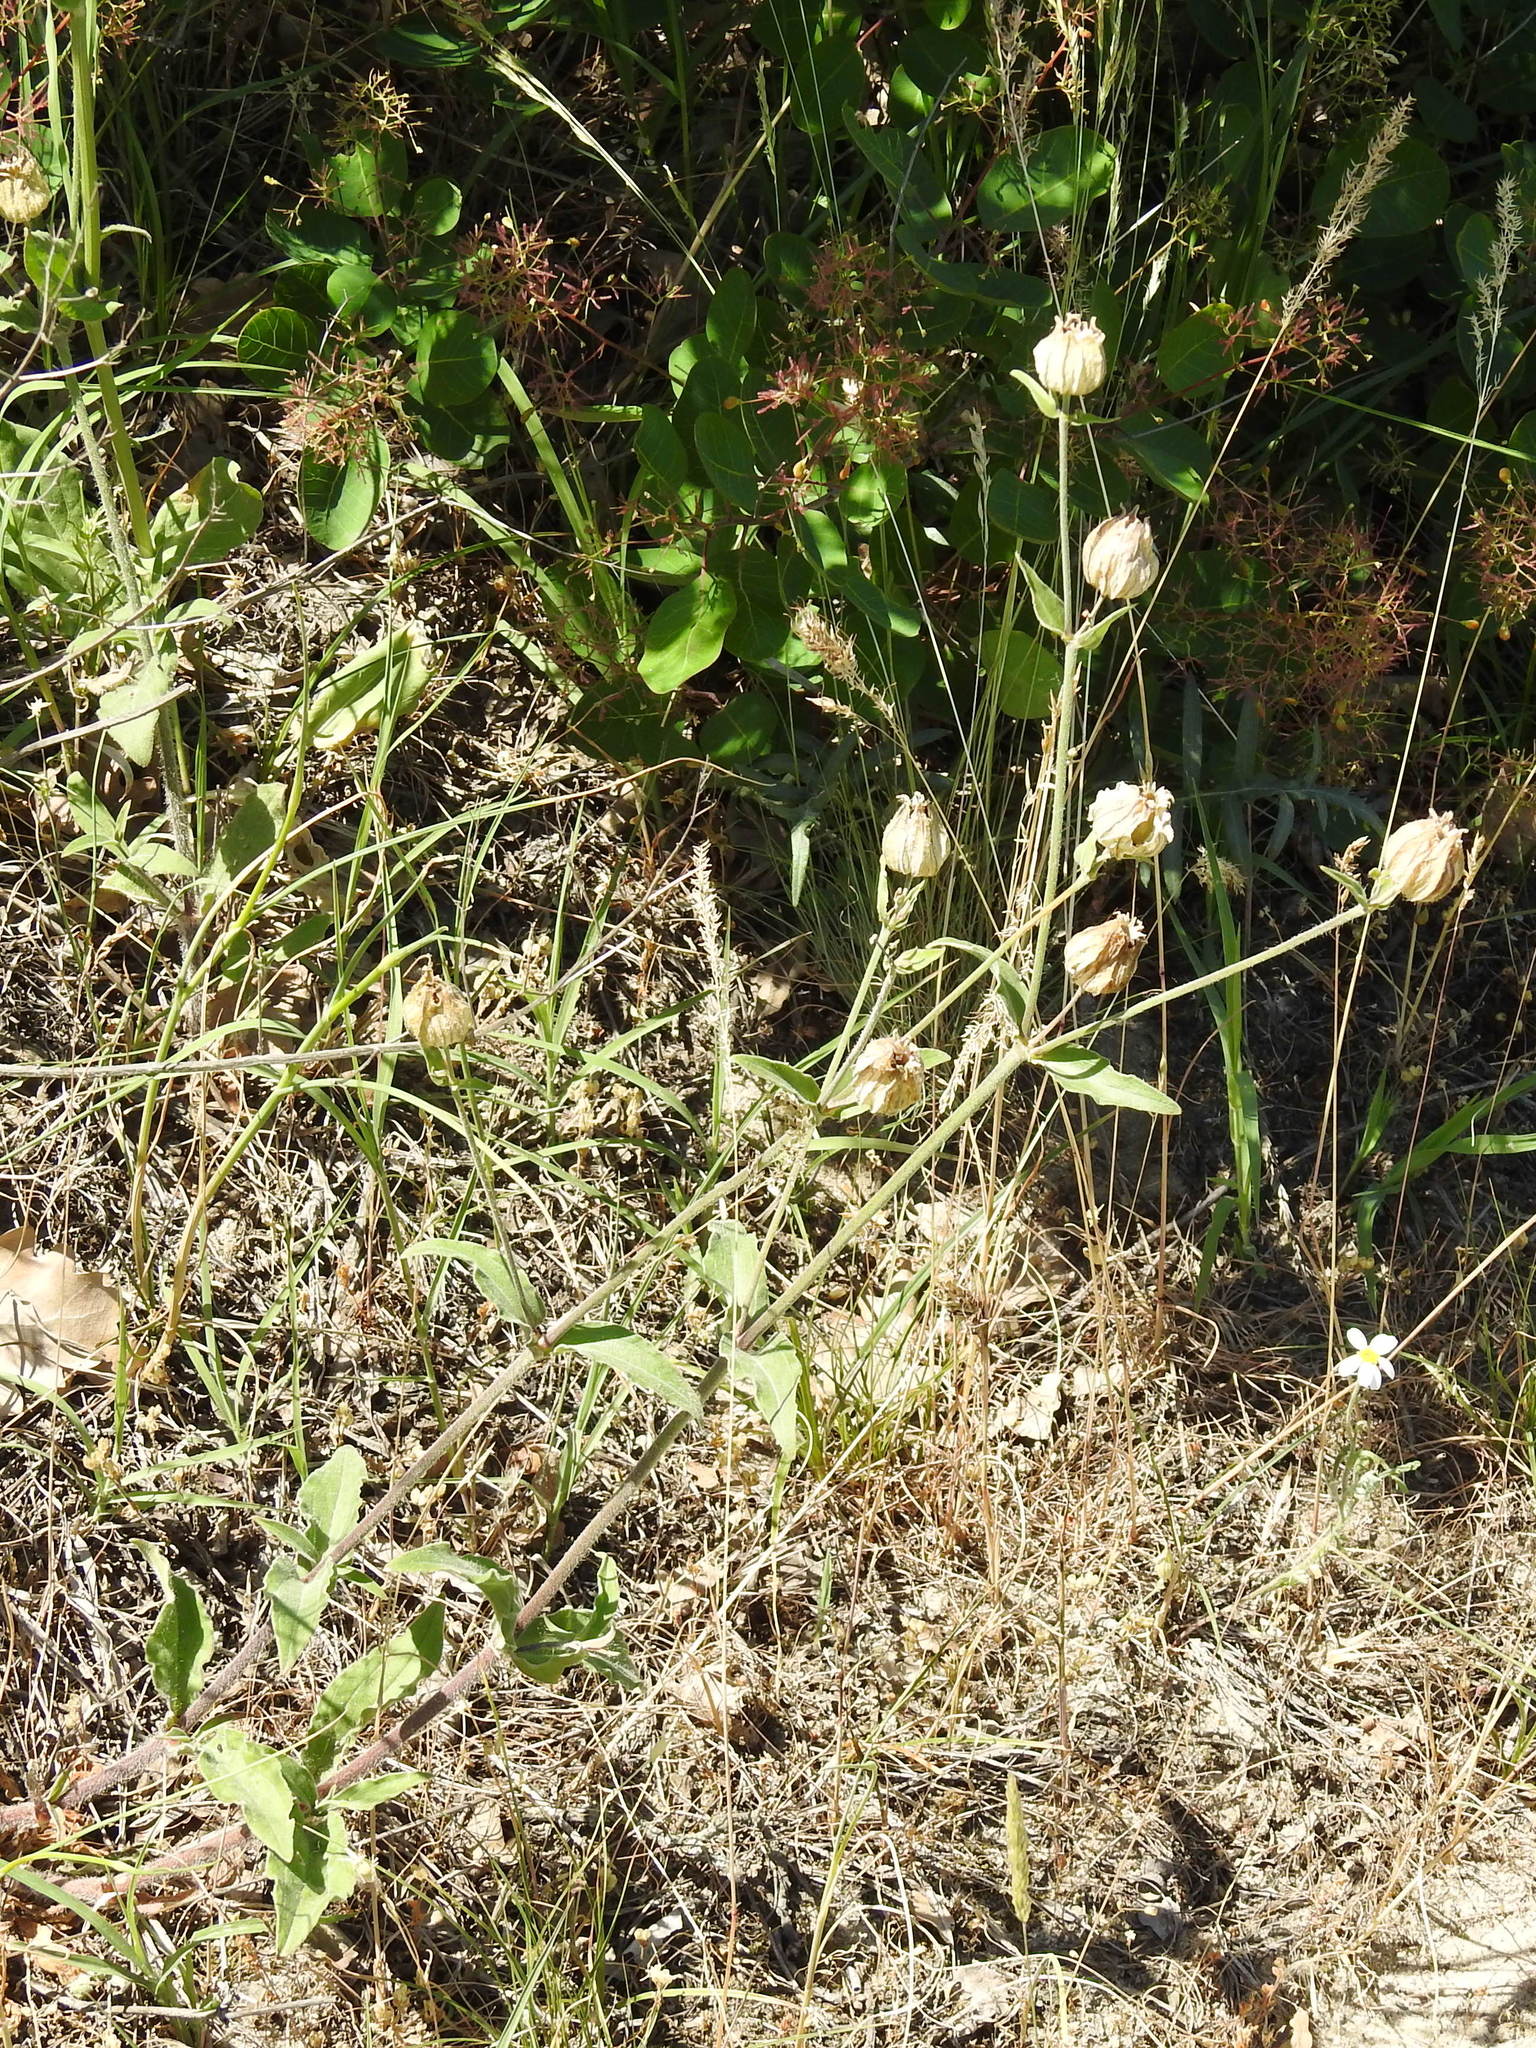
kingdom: Plantae
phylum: Tracheophyta
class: Magnoliopsida
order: Caryophyllales
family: Caryophyllaceae
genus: Silene
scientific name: Silene latifolia
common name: White campion
